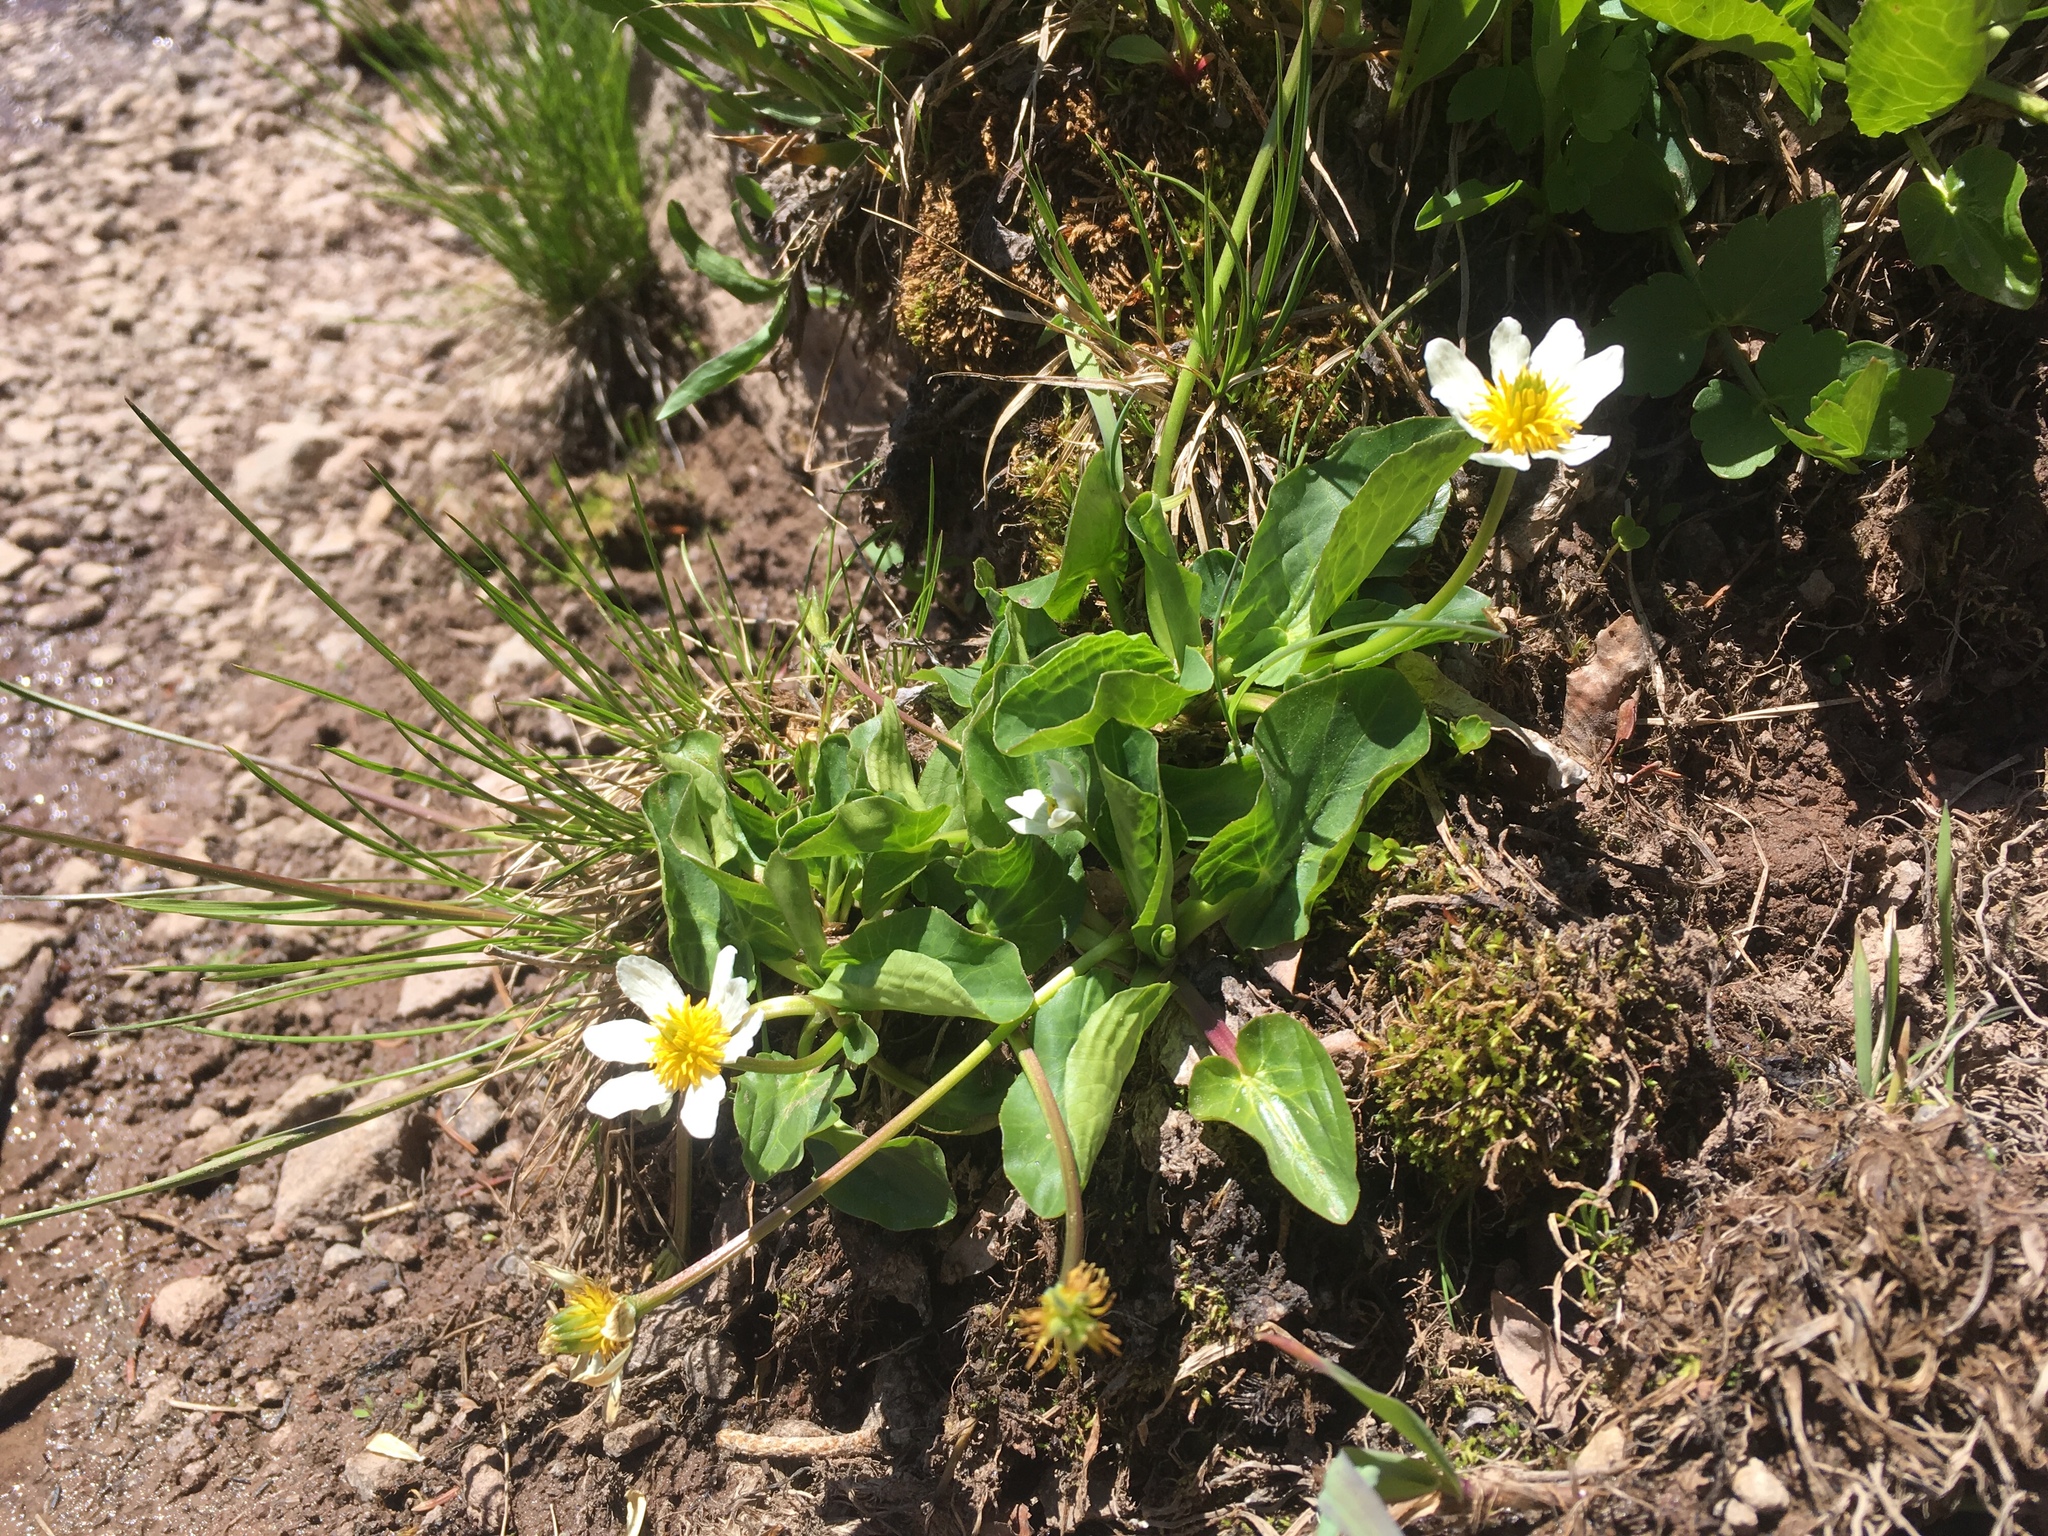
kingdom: Plantae
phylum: Tracheophyta
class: Magnoliopsida
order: Ranunculales
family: Ranunculaceae
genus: Caltha
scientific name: Caltha leptosepala
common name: Elkslip
